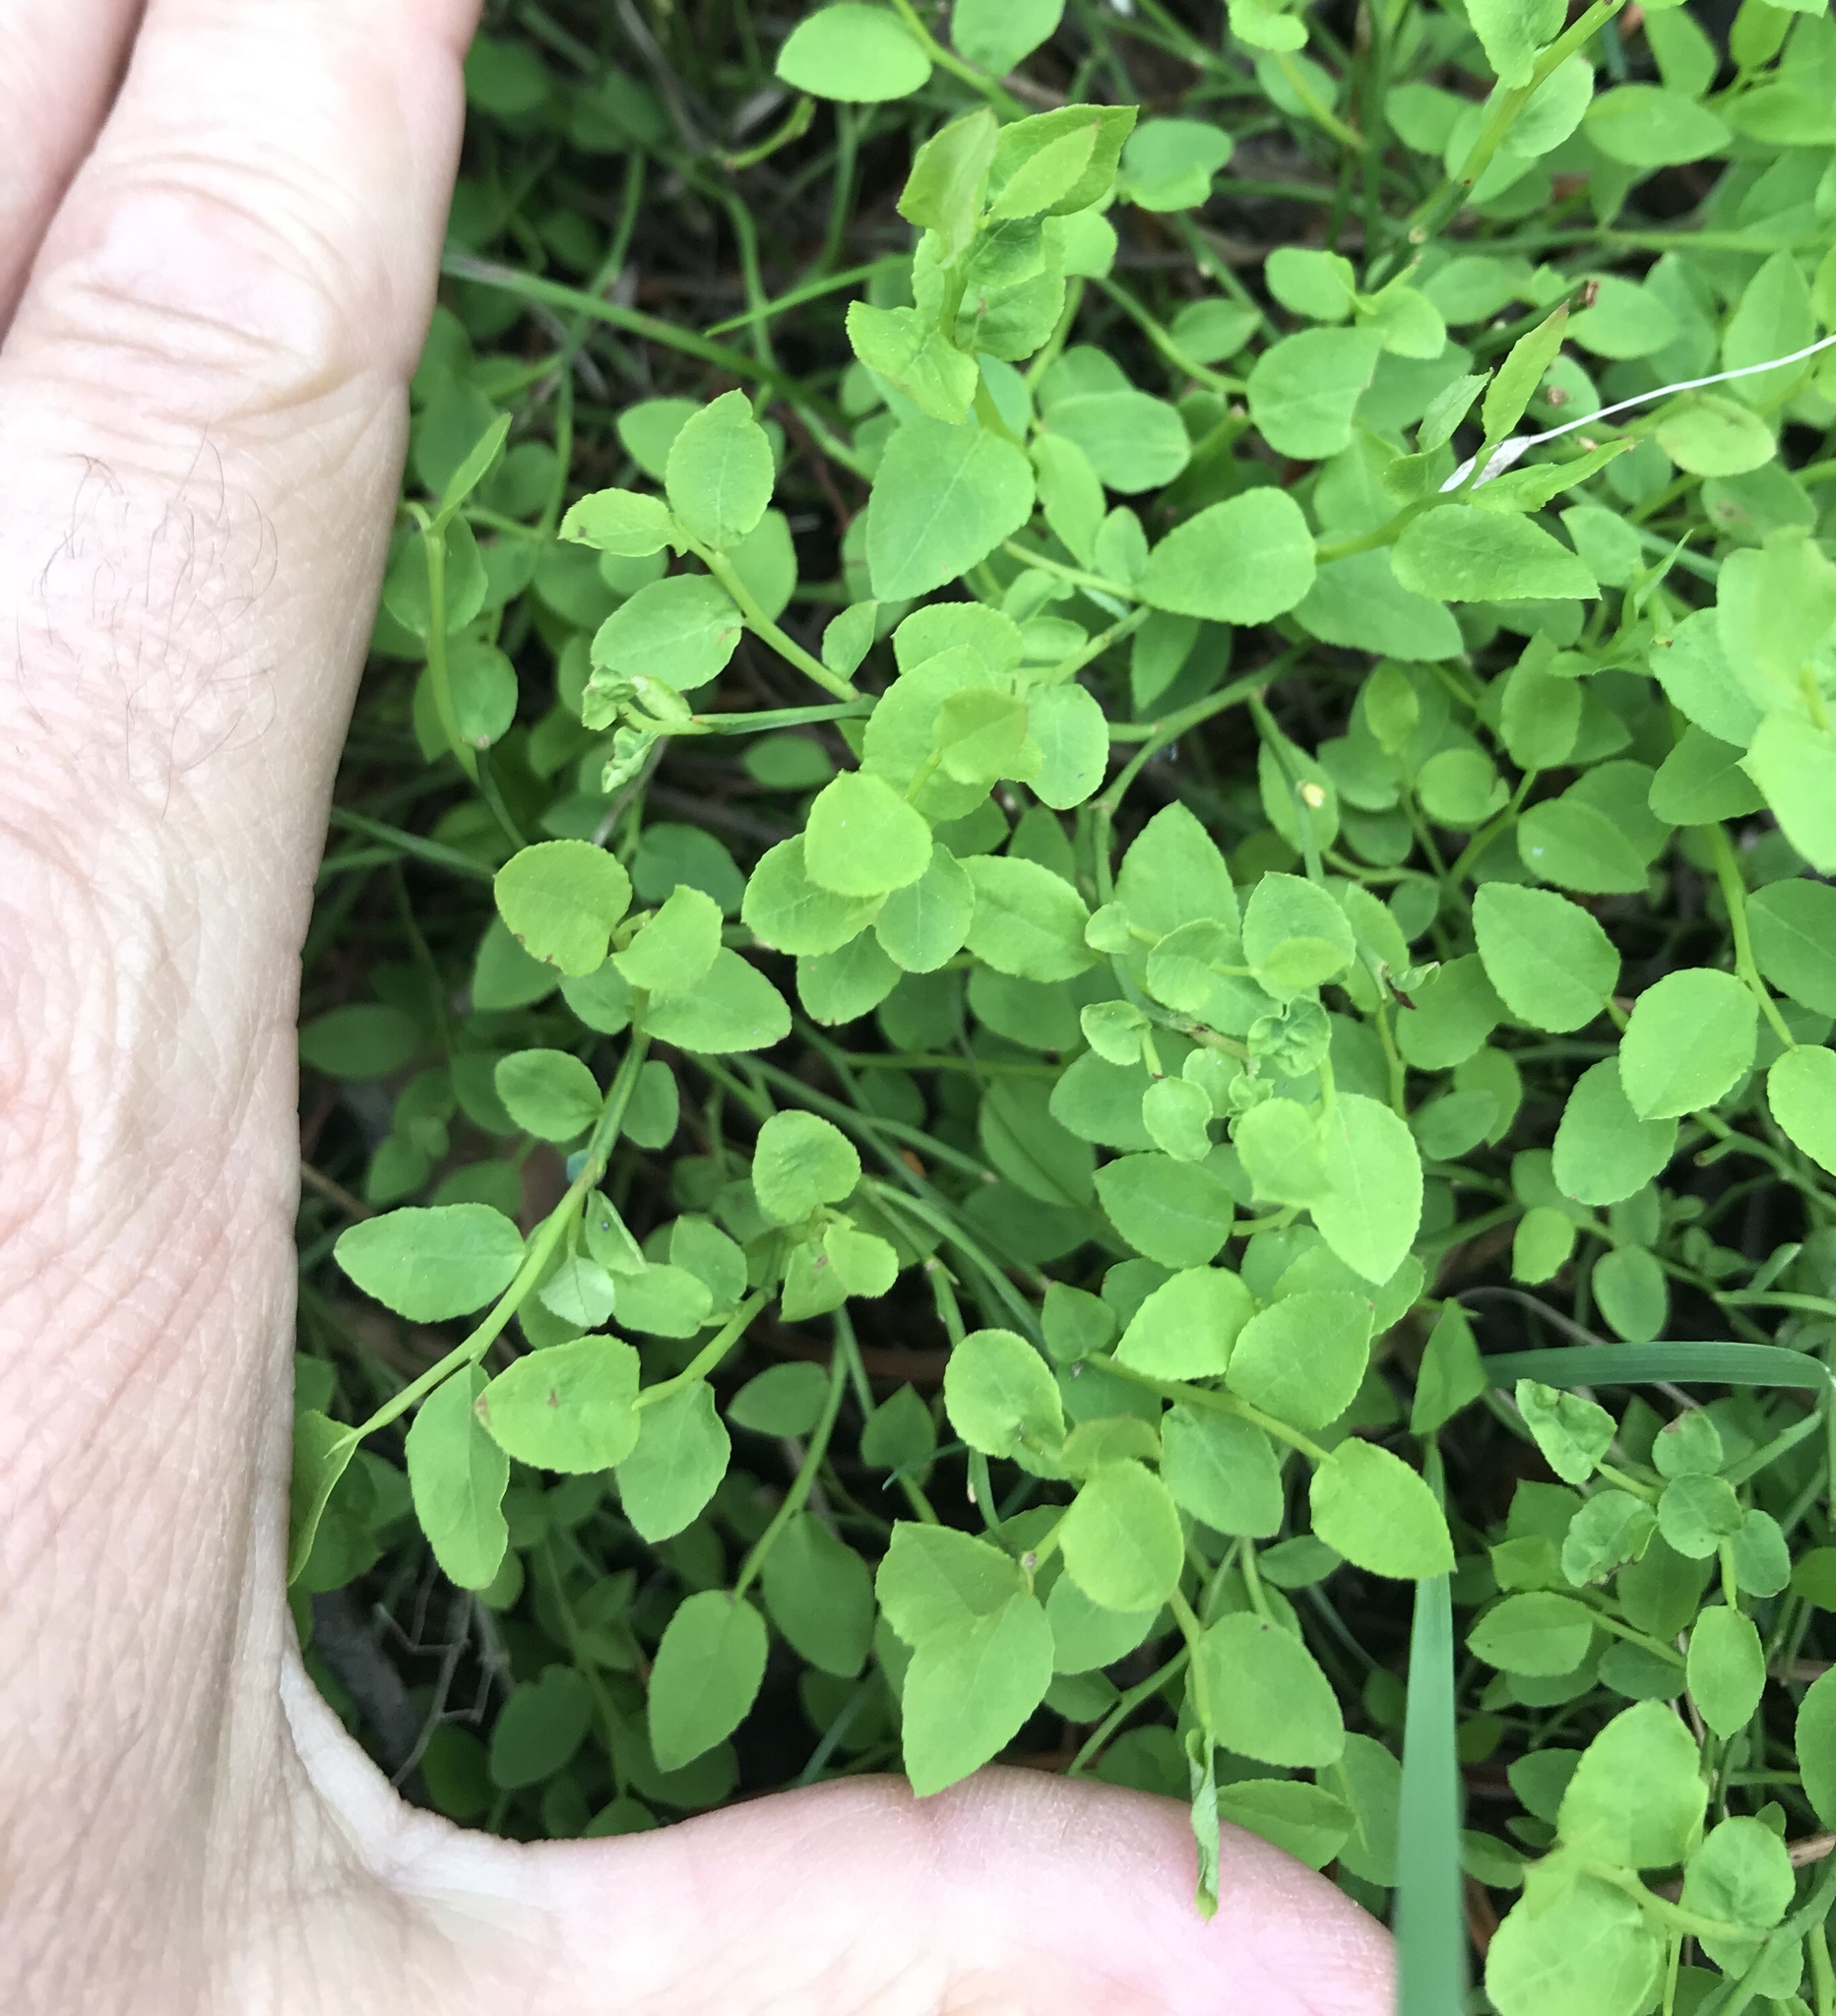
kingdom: Plantae
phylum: Tracheophyta
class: Magnoliopsida
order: Ericales
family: Ericaceae
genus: Vaccinium
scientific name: Vaccinium scoparium
